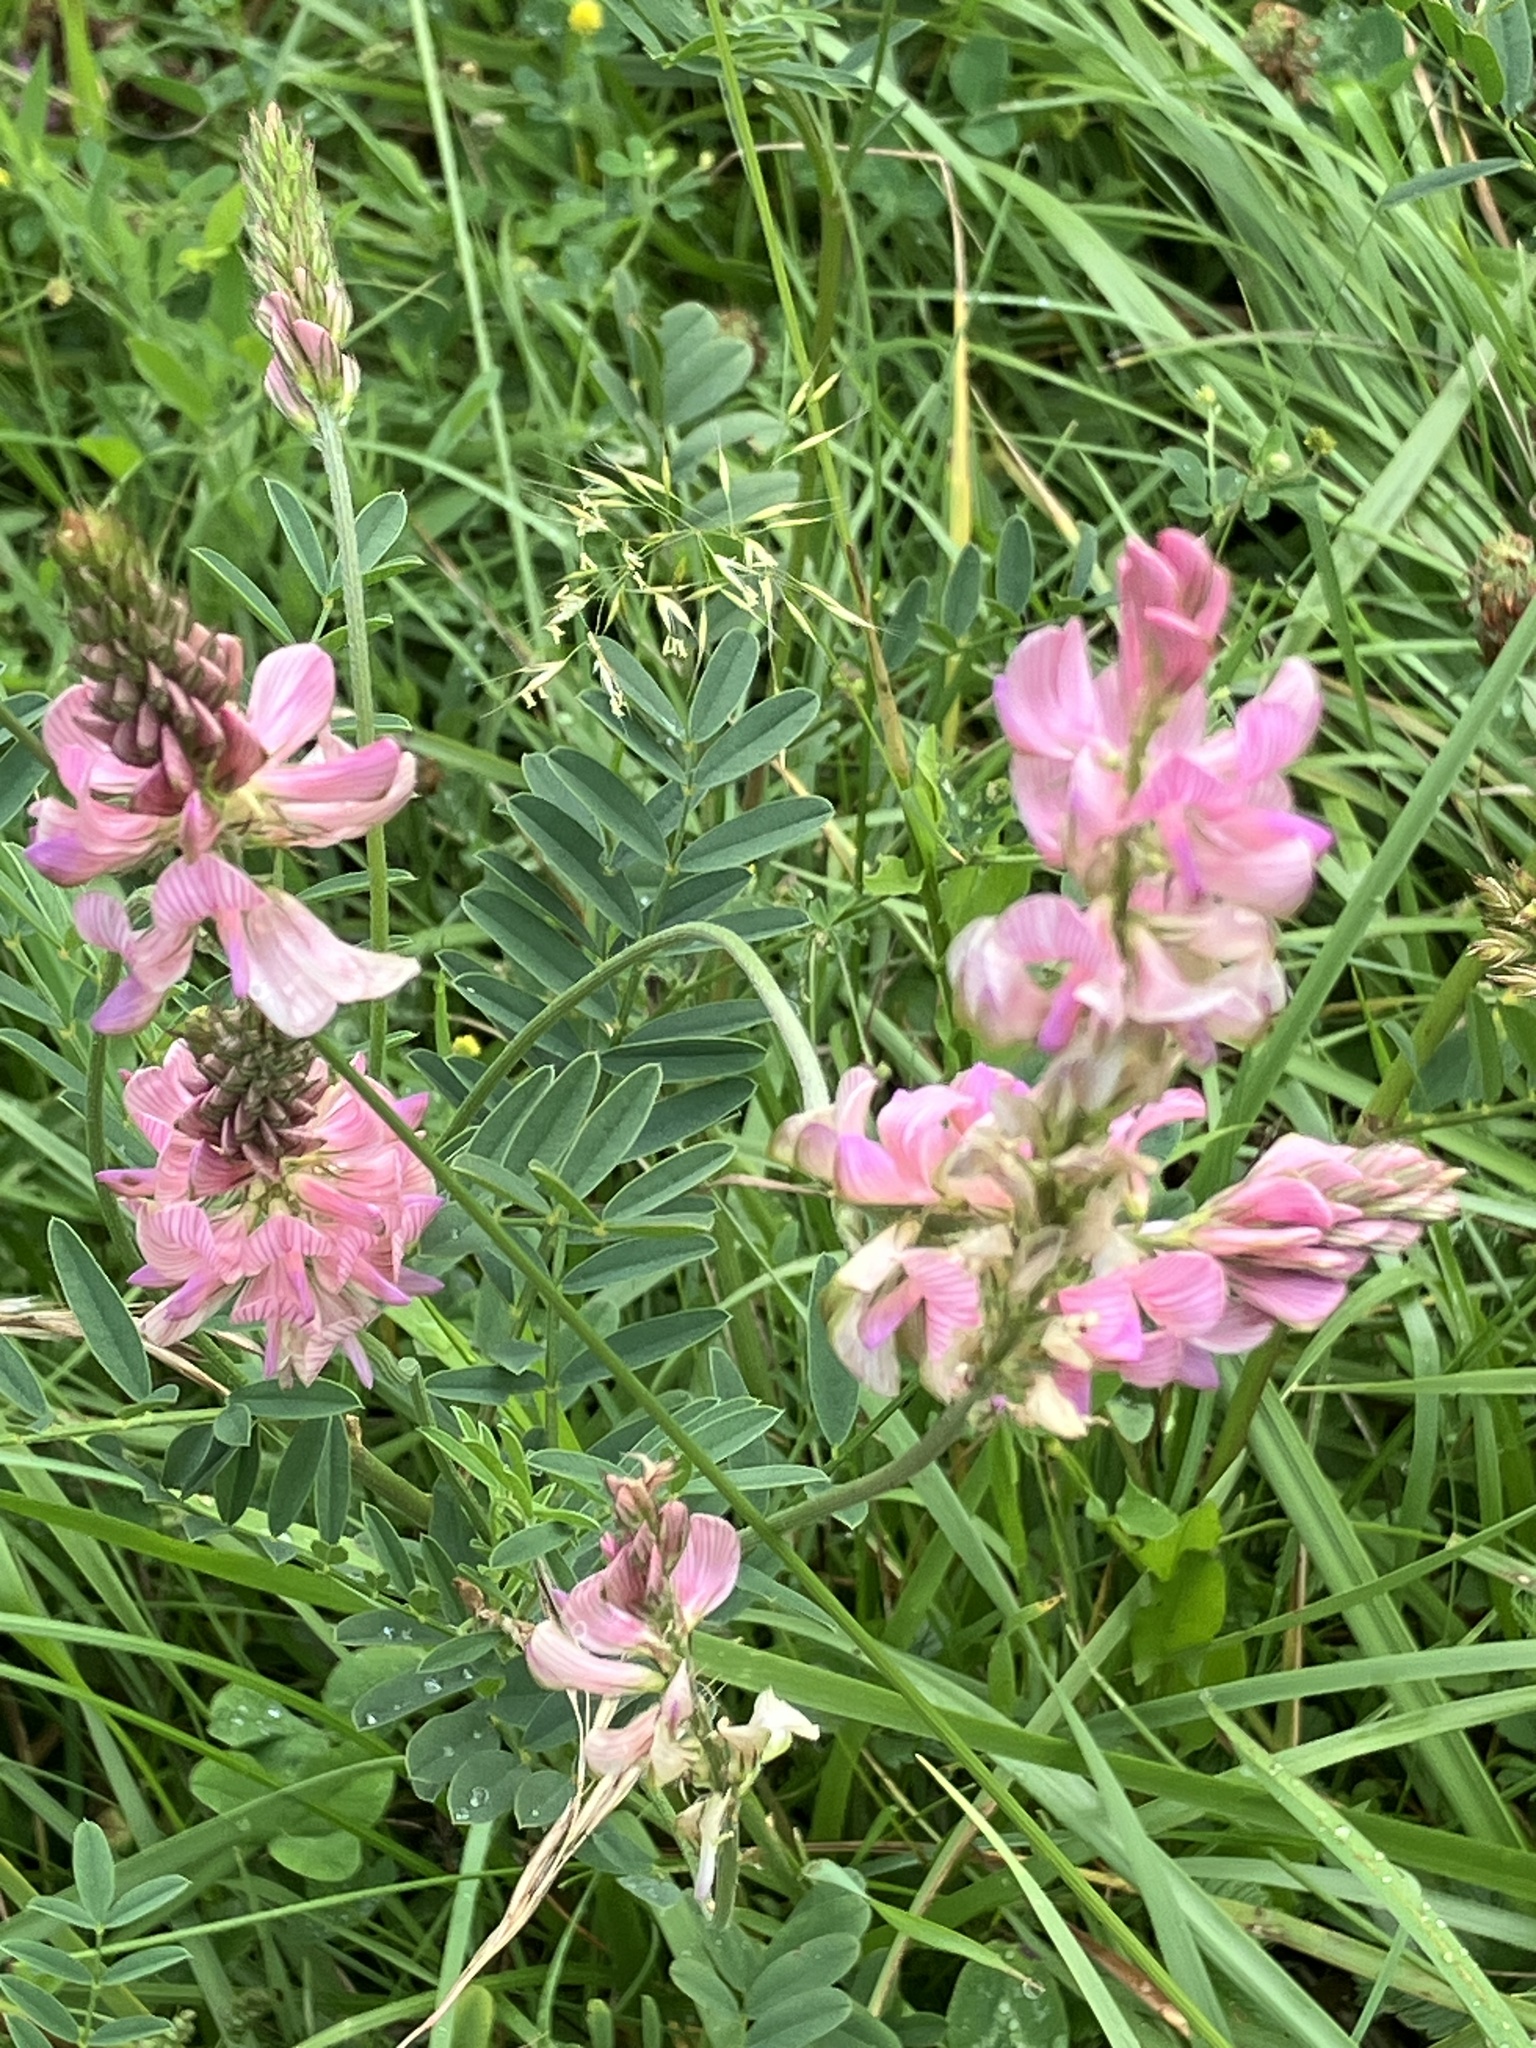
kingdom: Plantae
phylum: Tracheophyta
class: Magnoliopsida
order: Fabales
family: Fabaceae
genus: Onobrychis
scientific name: Onobrychis viciifolia
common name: Sainfoin
